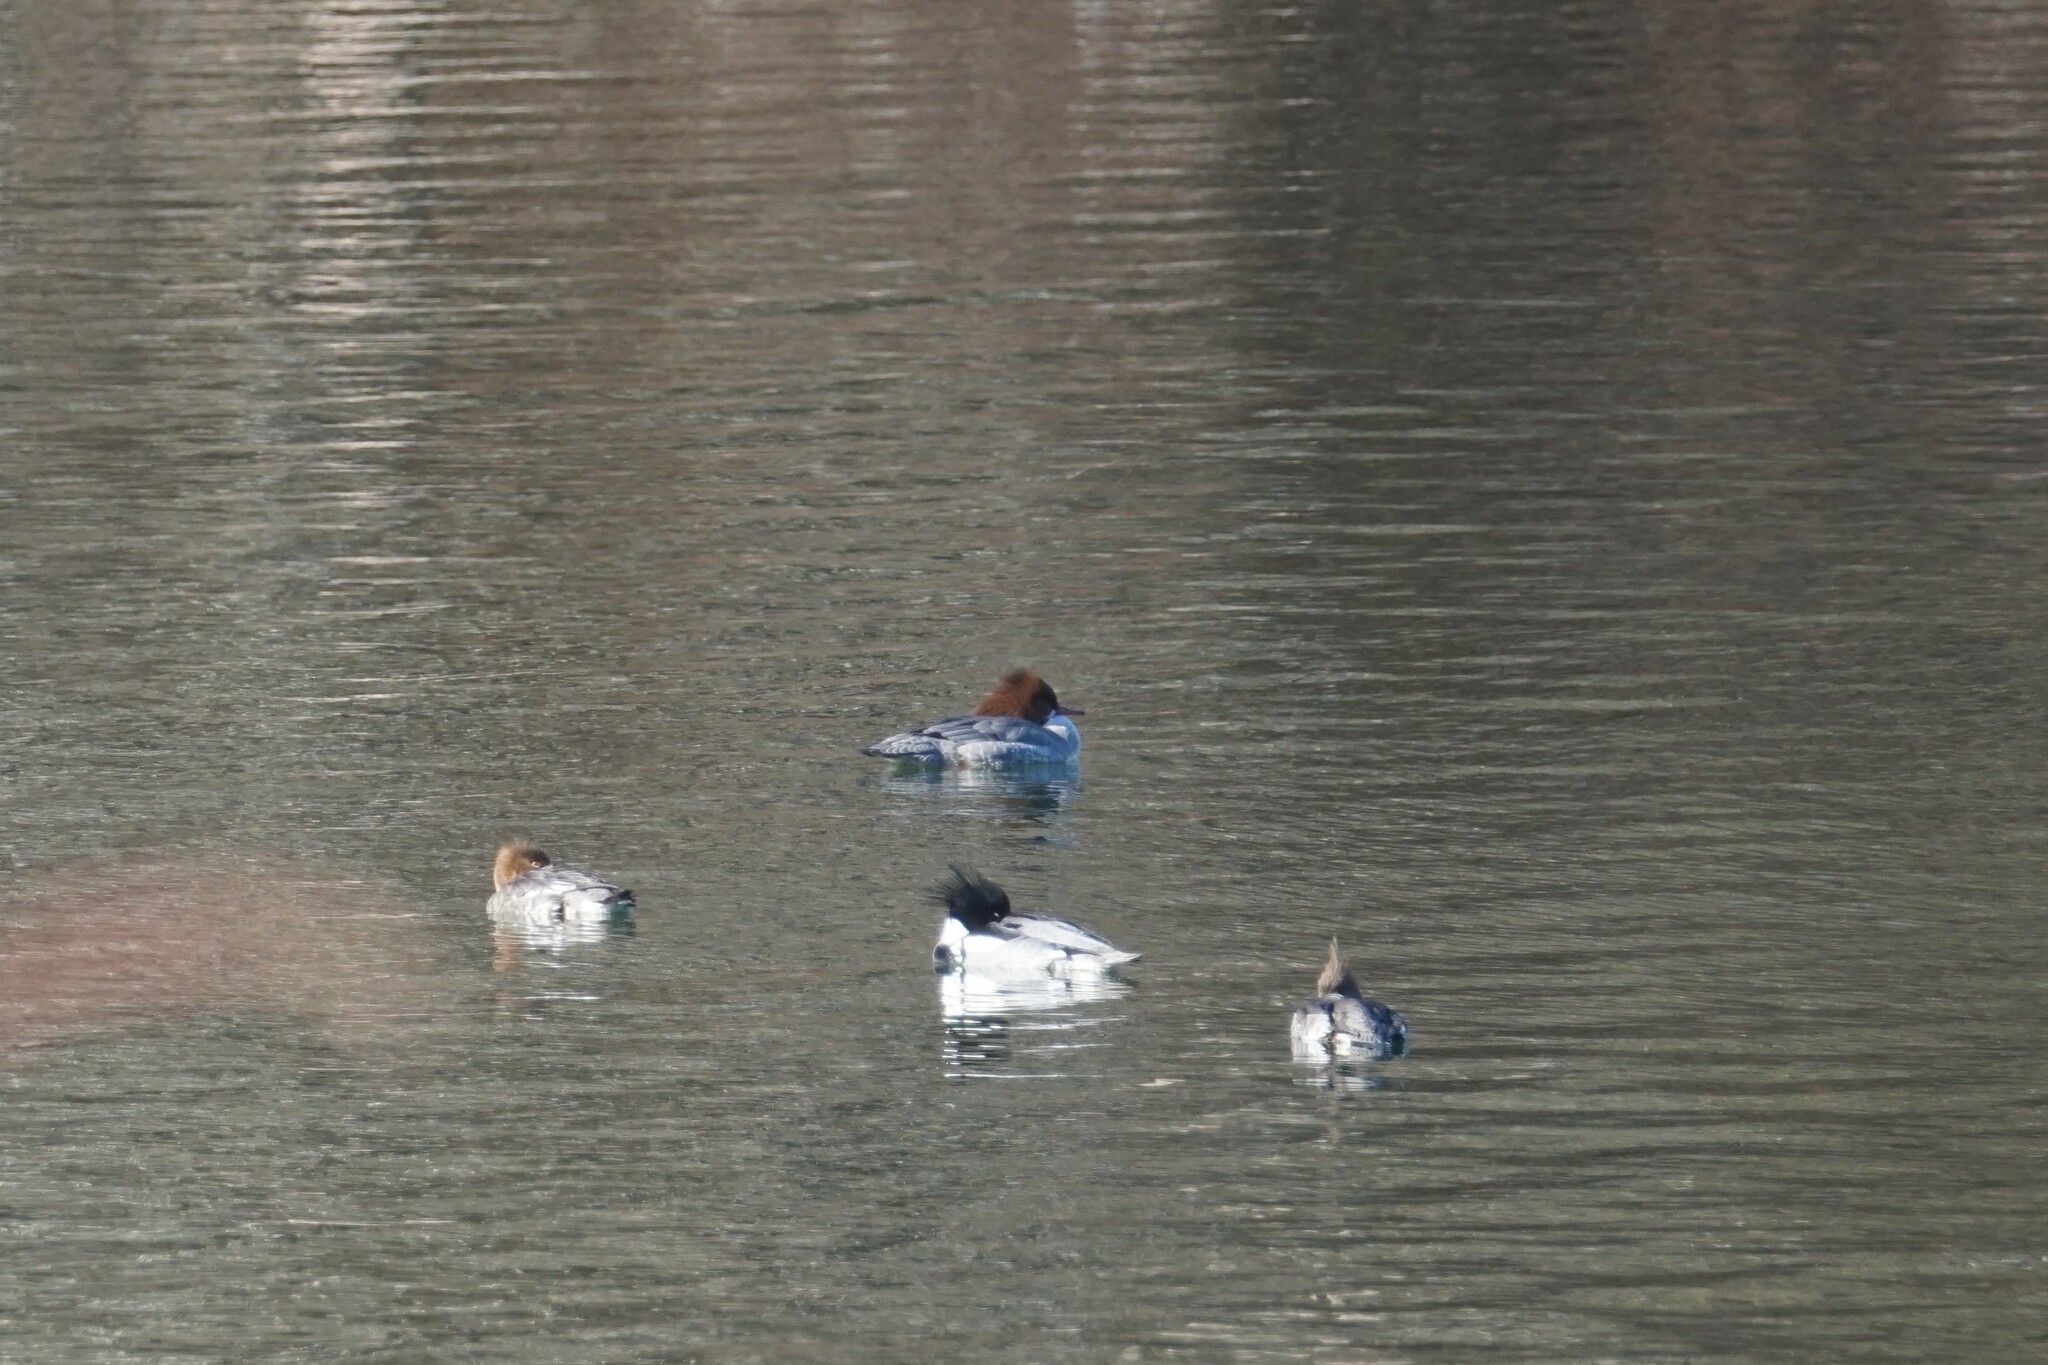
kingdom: Animalia
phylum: Chordata
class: Aves
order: Anseriformes
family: Anatidae
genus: Mergus
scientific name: Mergus merganser
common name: Common merganser
